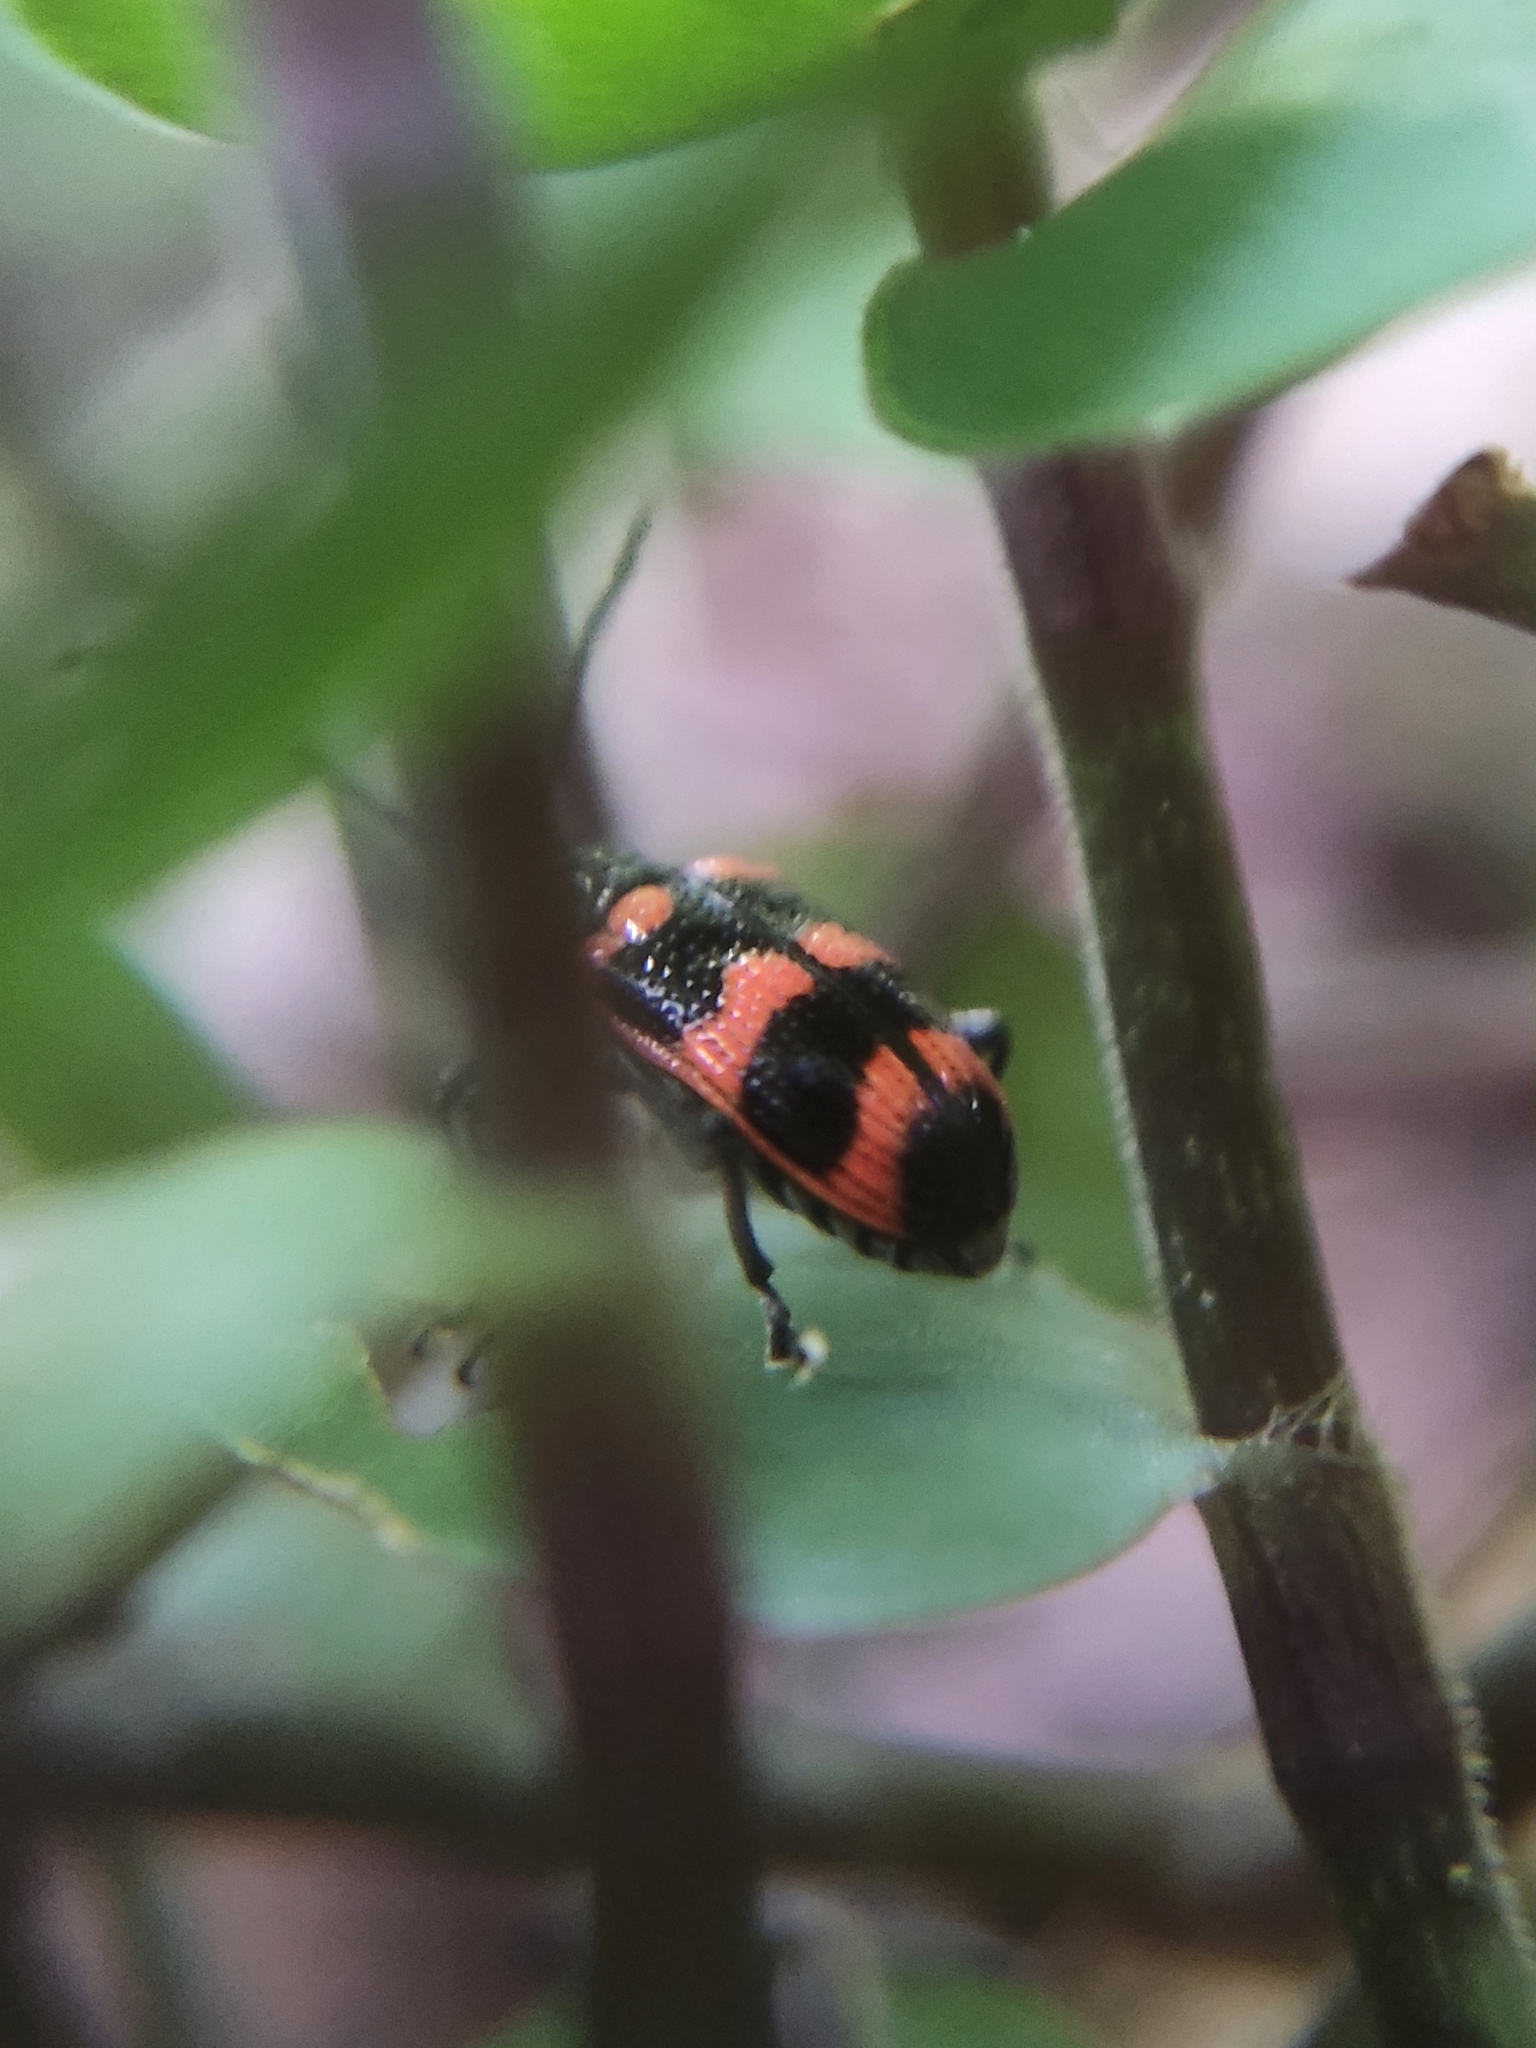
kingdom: Animalia
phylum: Arthropoda
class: Insecta
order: Coleoptera
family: Chrysomelidae
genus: Neolema
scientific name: Neolema
